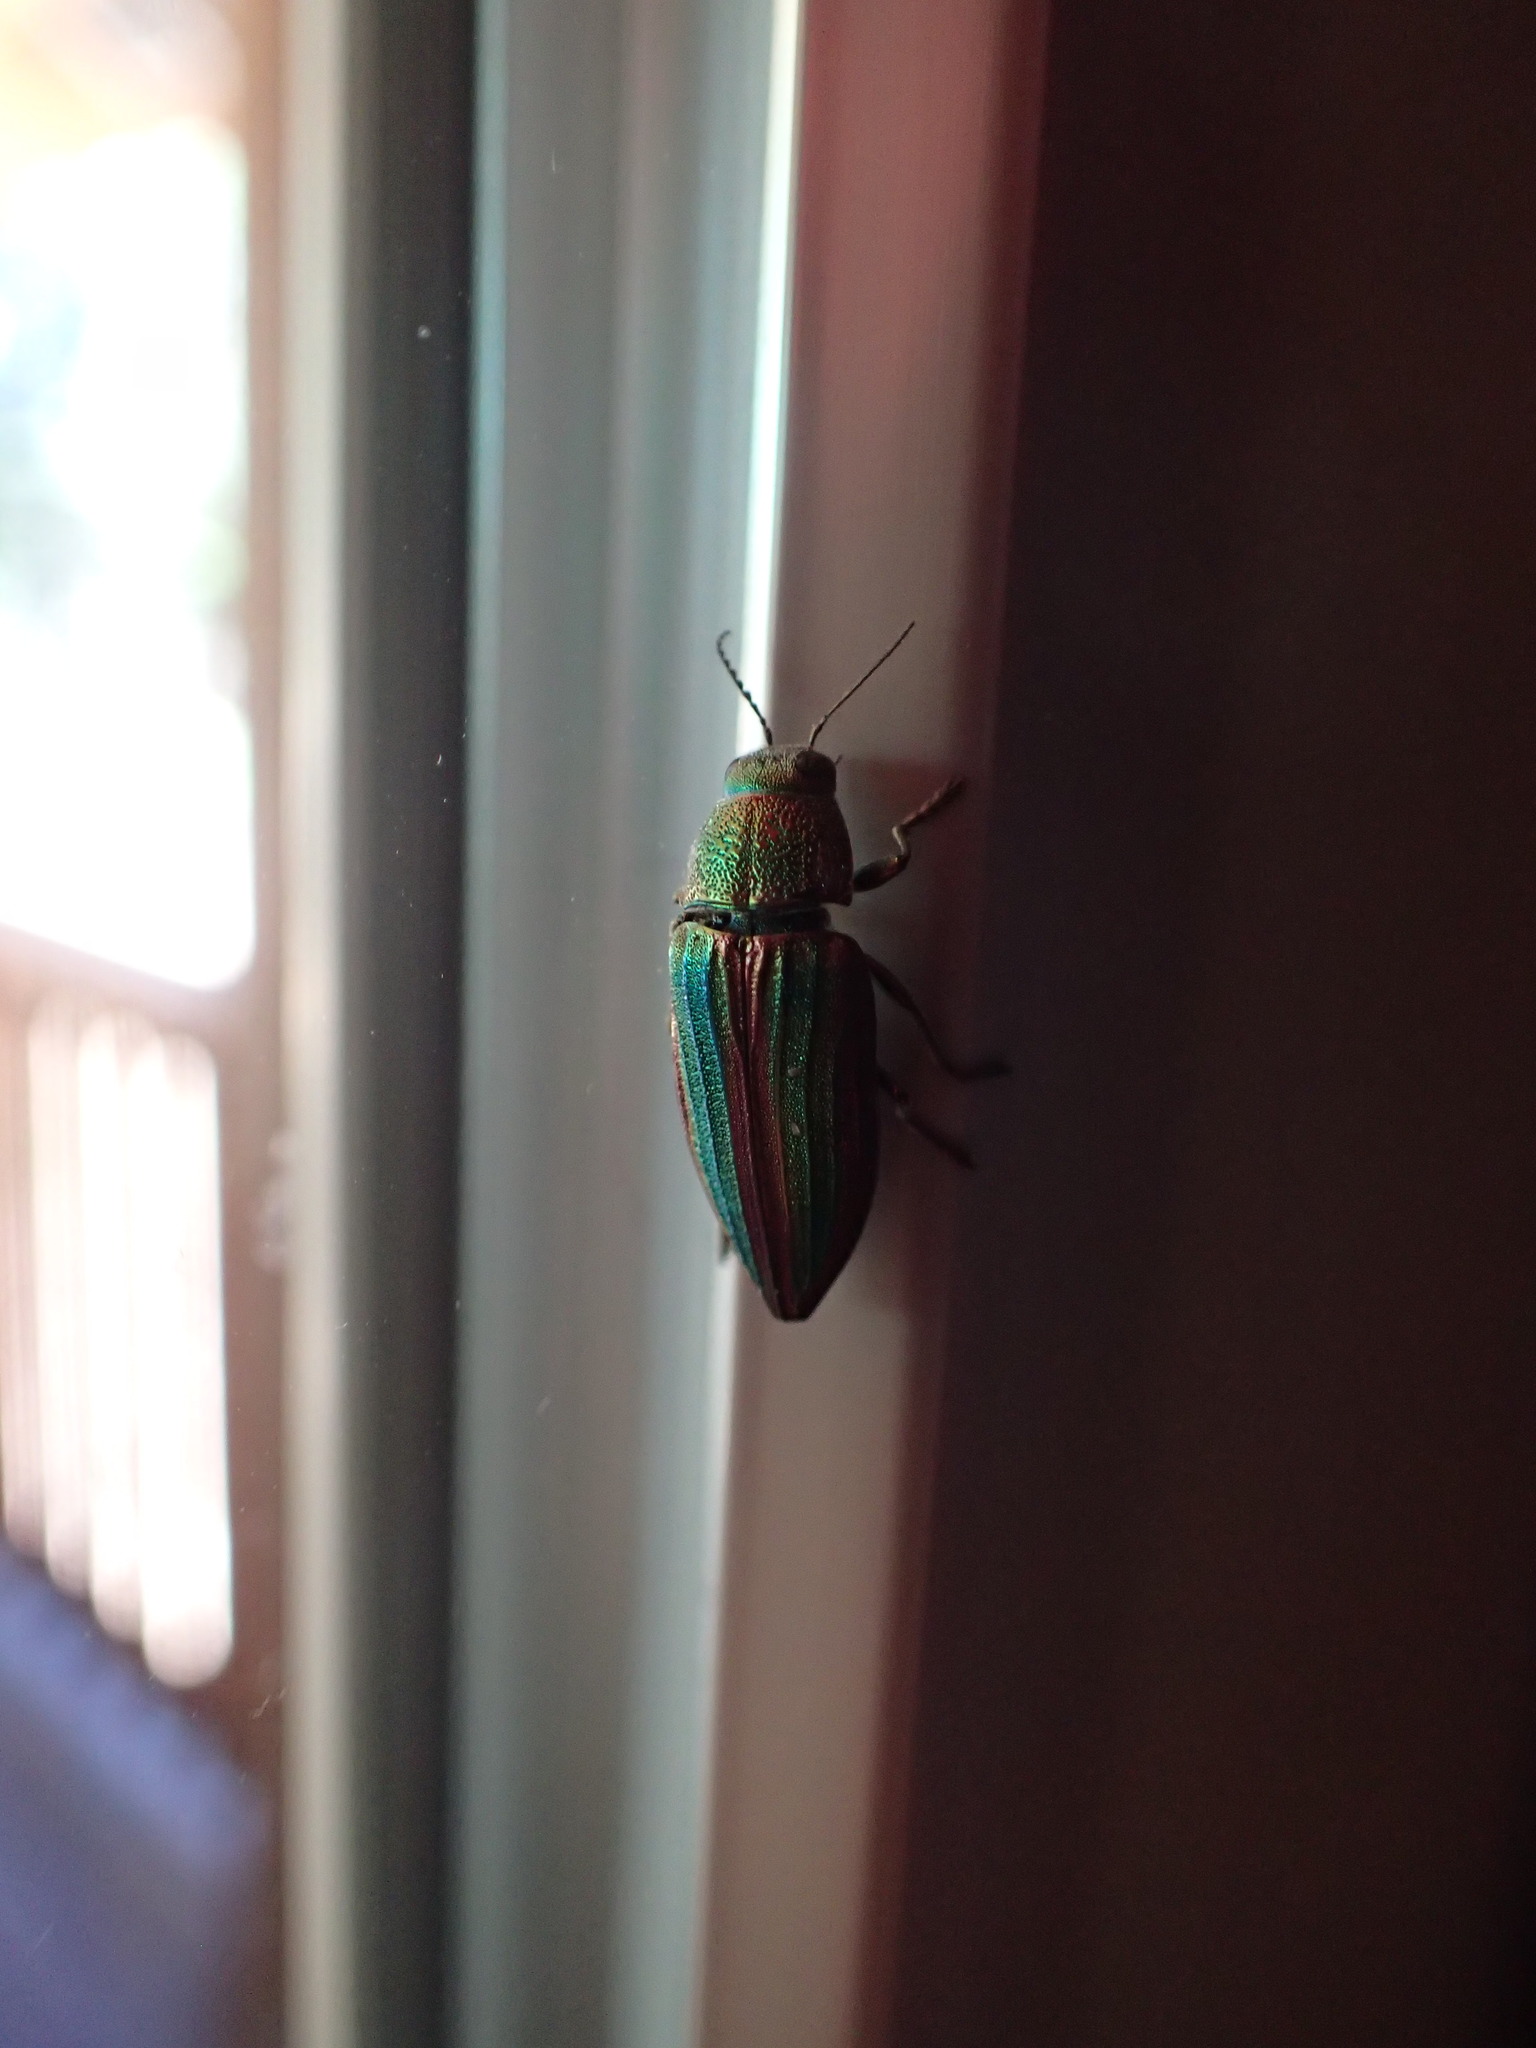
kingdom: Animalia
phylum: Arthropoda
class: Insecta
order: Coleoptera
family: Buprestidae
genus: Buprestis
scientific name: Buprestis aurulenta
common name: Golden buprestid
